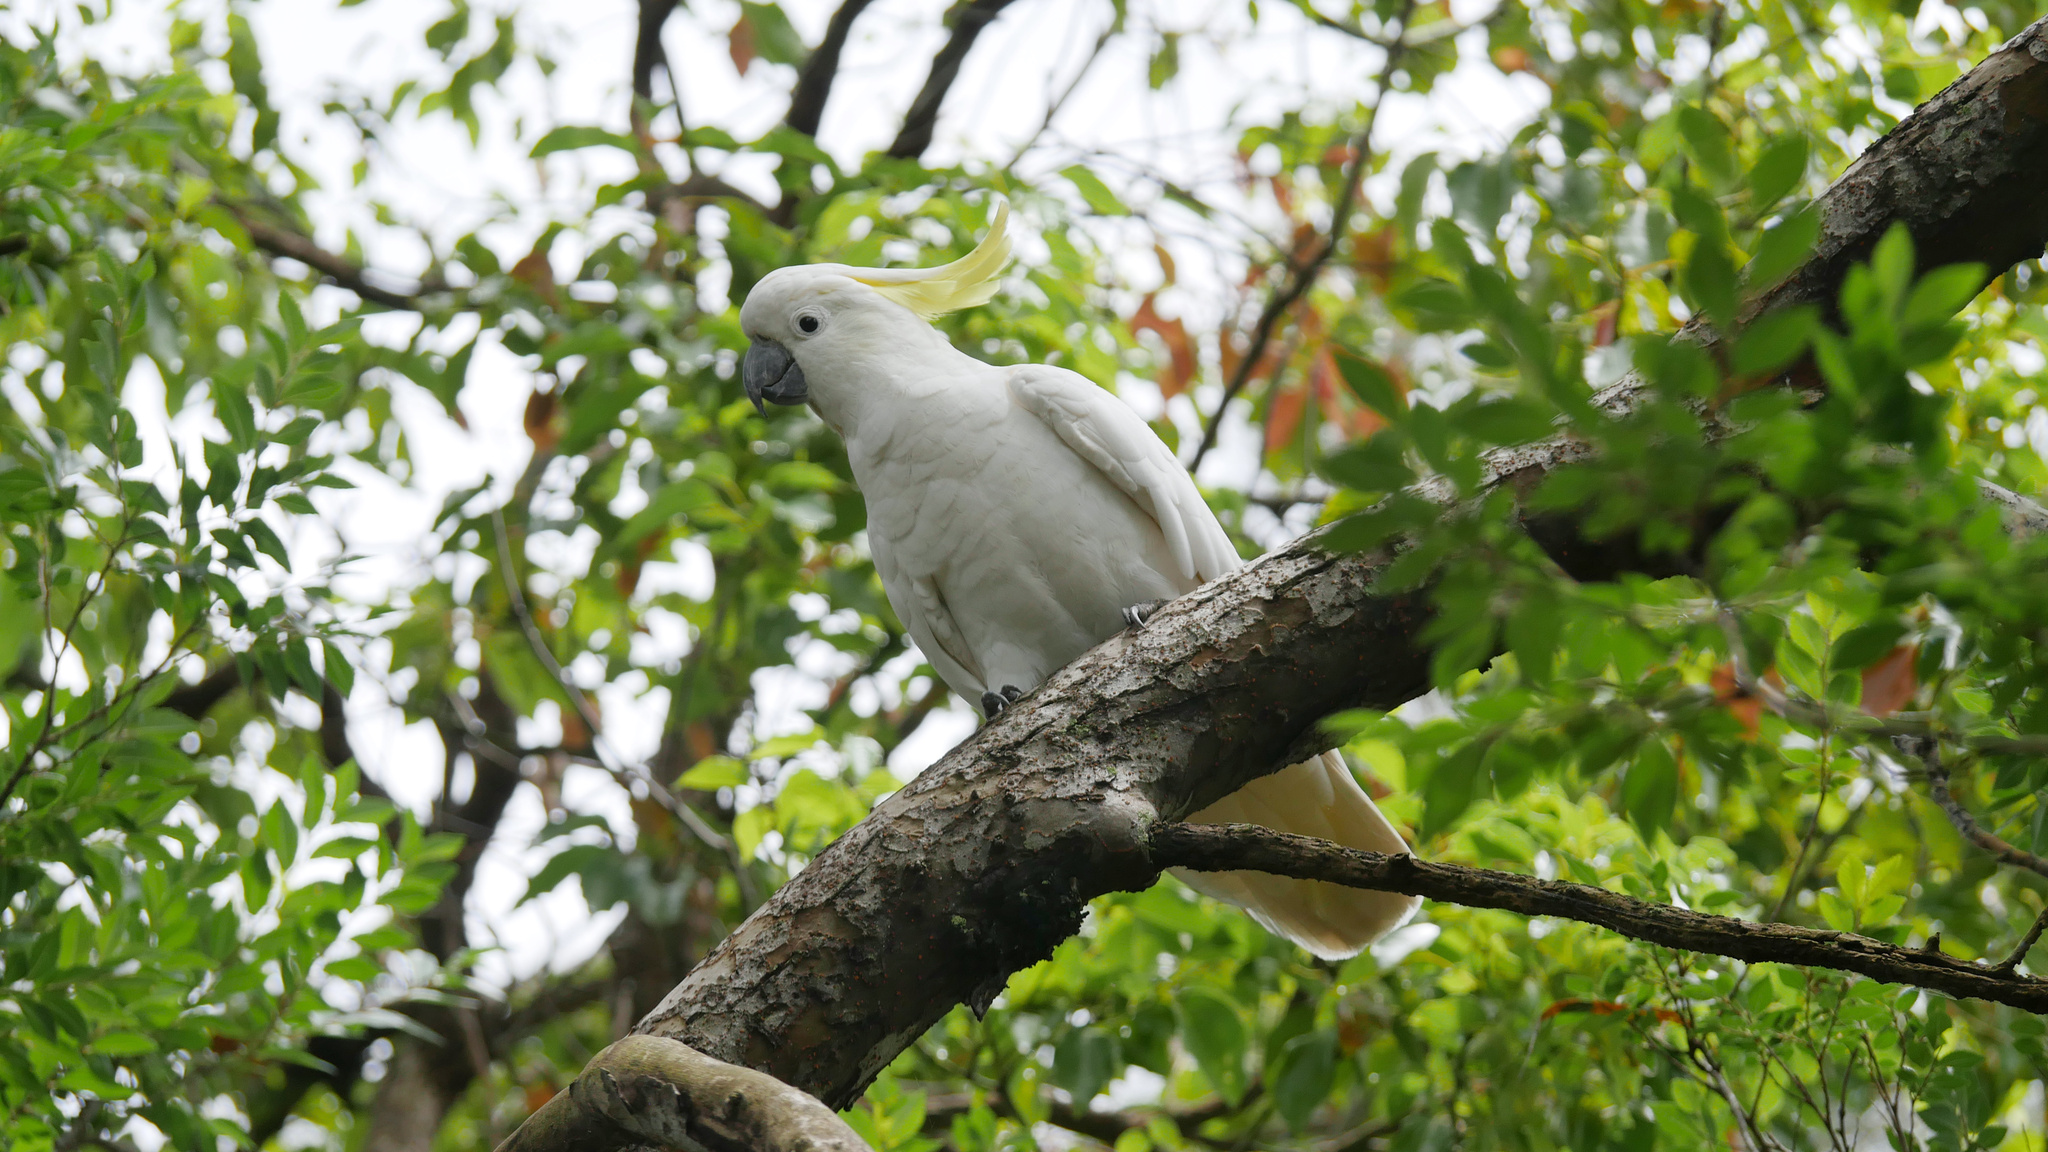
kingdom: Animalia
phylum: Chordata
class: Aves
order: Psittaciformes
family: Psittacidae
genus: Cacatua
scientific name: Cacatua galerita
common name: Sulphur-crested cockatoo
